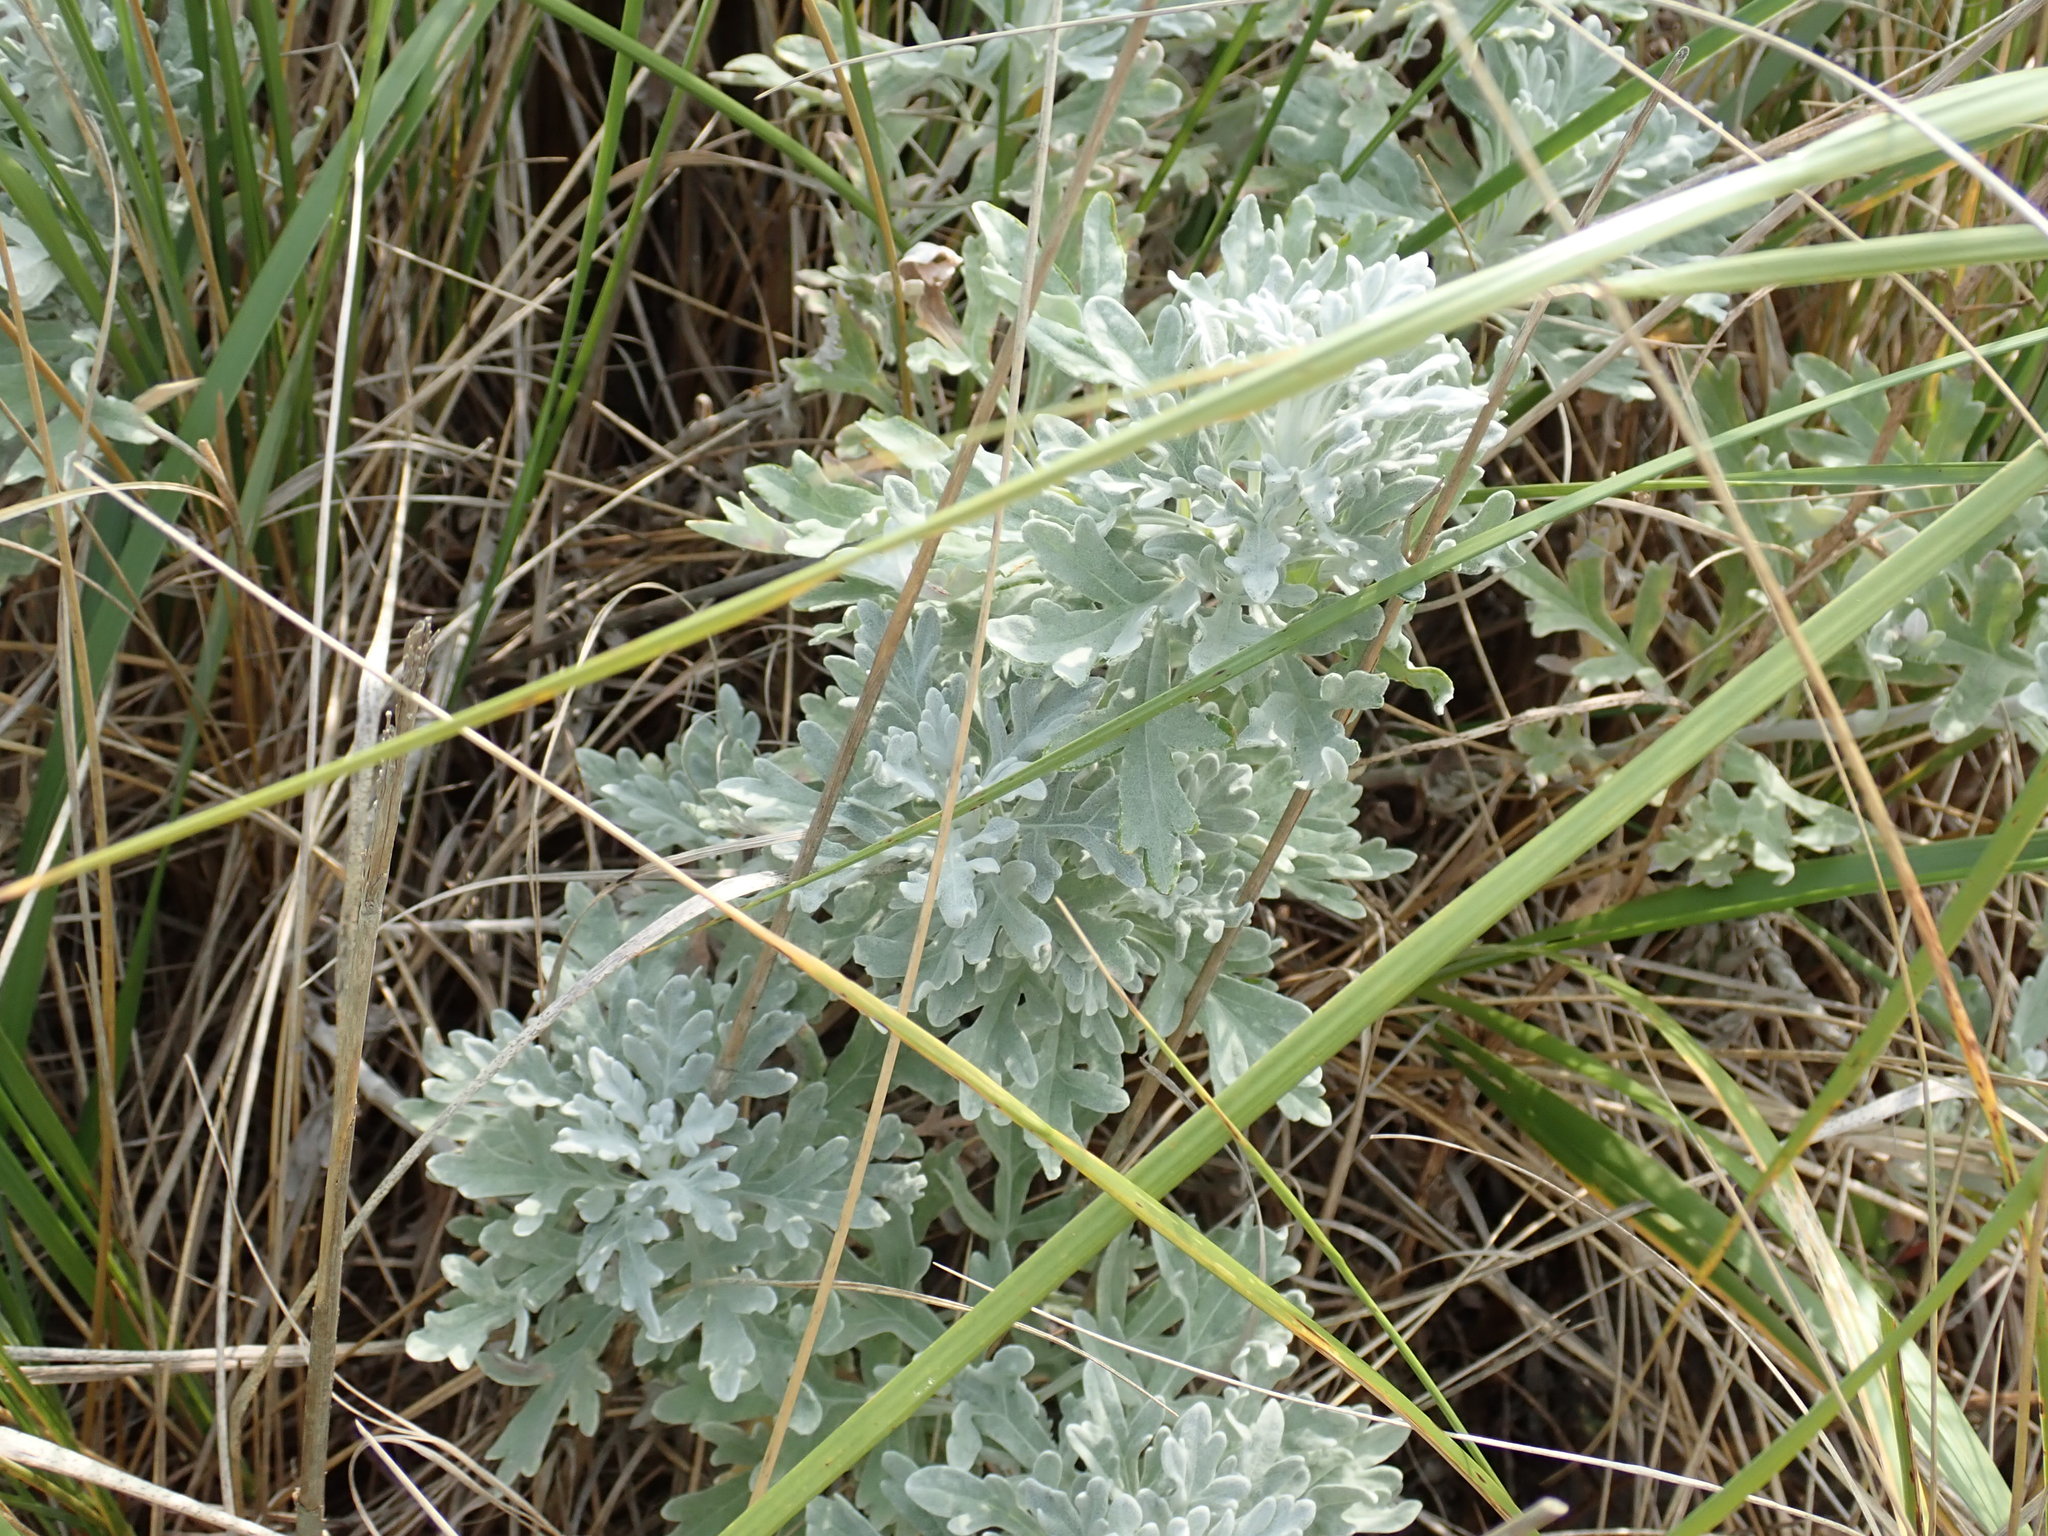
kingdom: Plantae
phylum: Tracheophyta
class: Magnoliopsida
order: Asterales
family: Asteraceae
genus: Artemisia
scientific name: Artemisia stelleriana
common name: Beach wormwood
